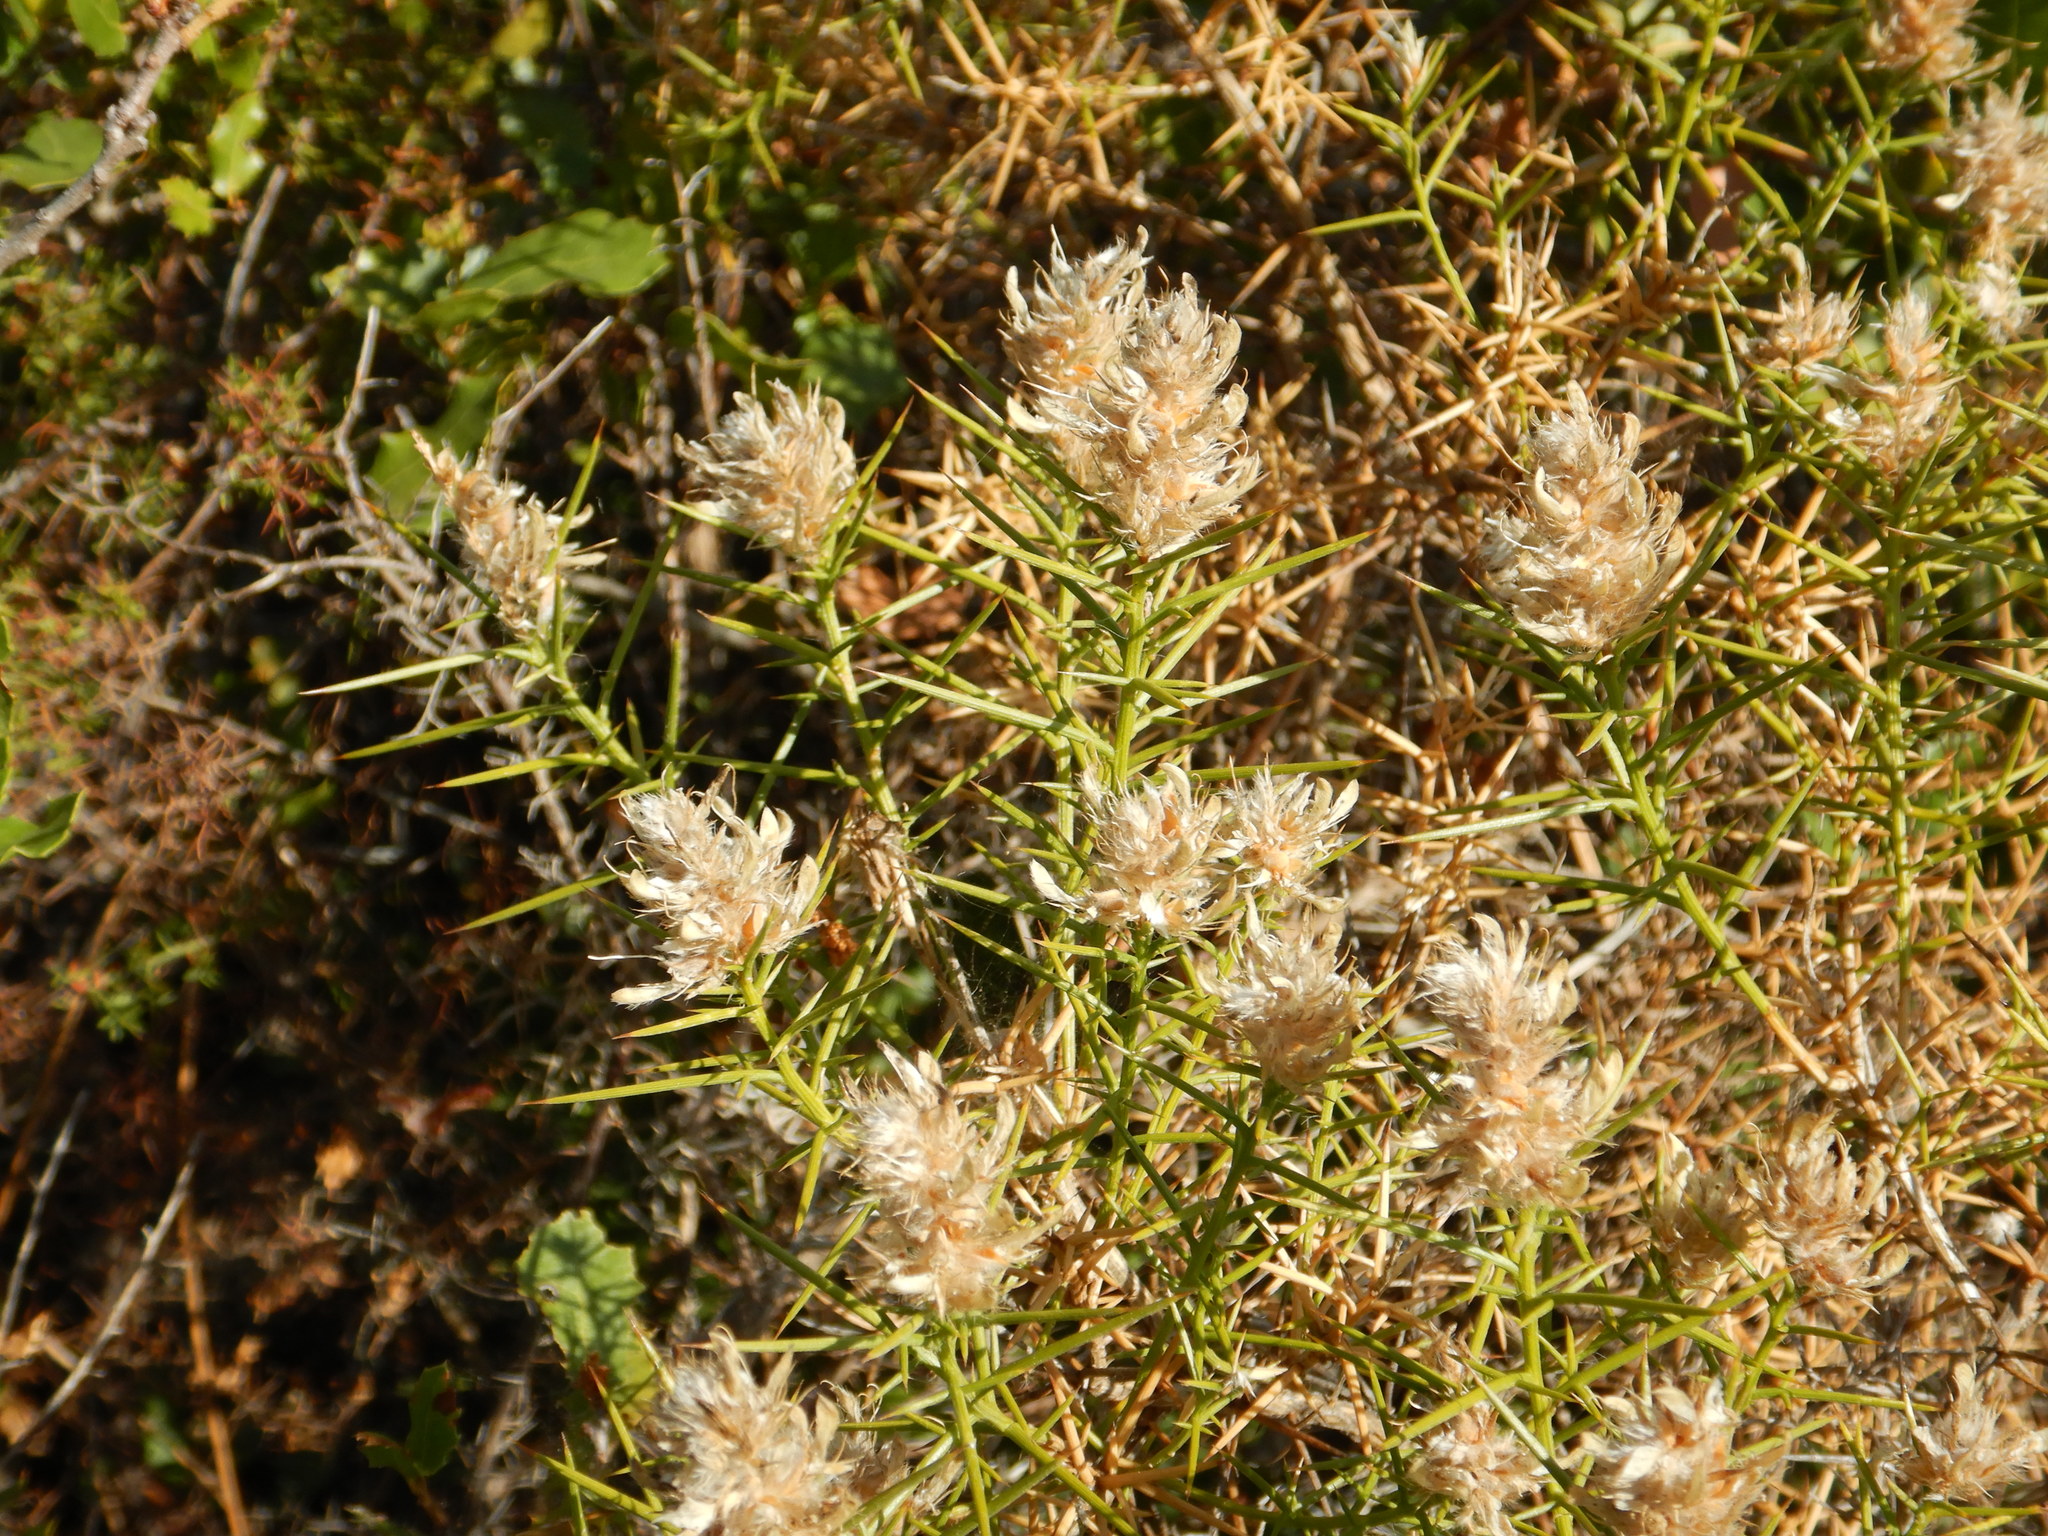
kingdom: Plantae
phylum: Tracheophyta
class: Magnoliopsida
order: Fabales
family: Fabaceae
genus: Genista
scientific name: Genista hirsuta
